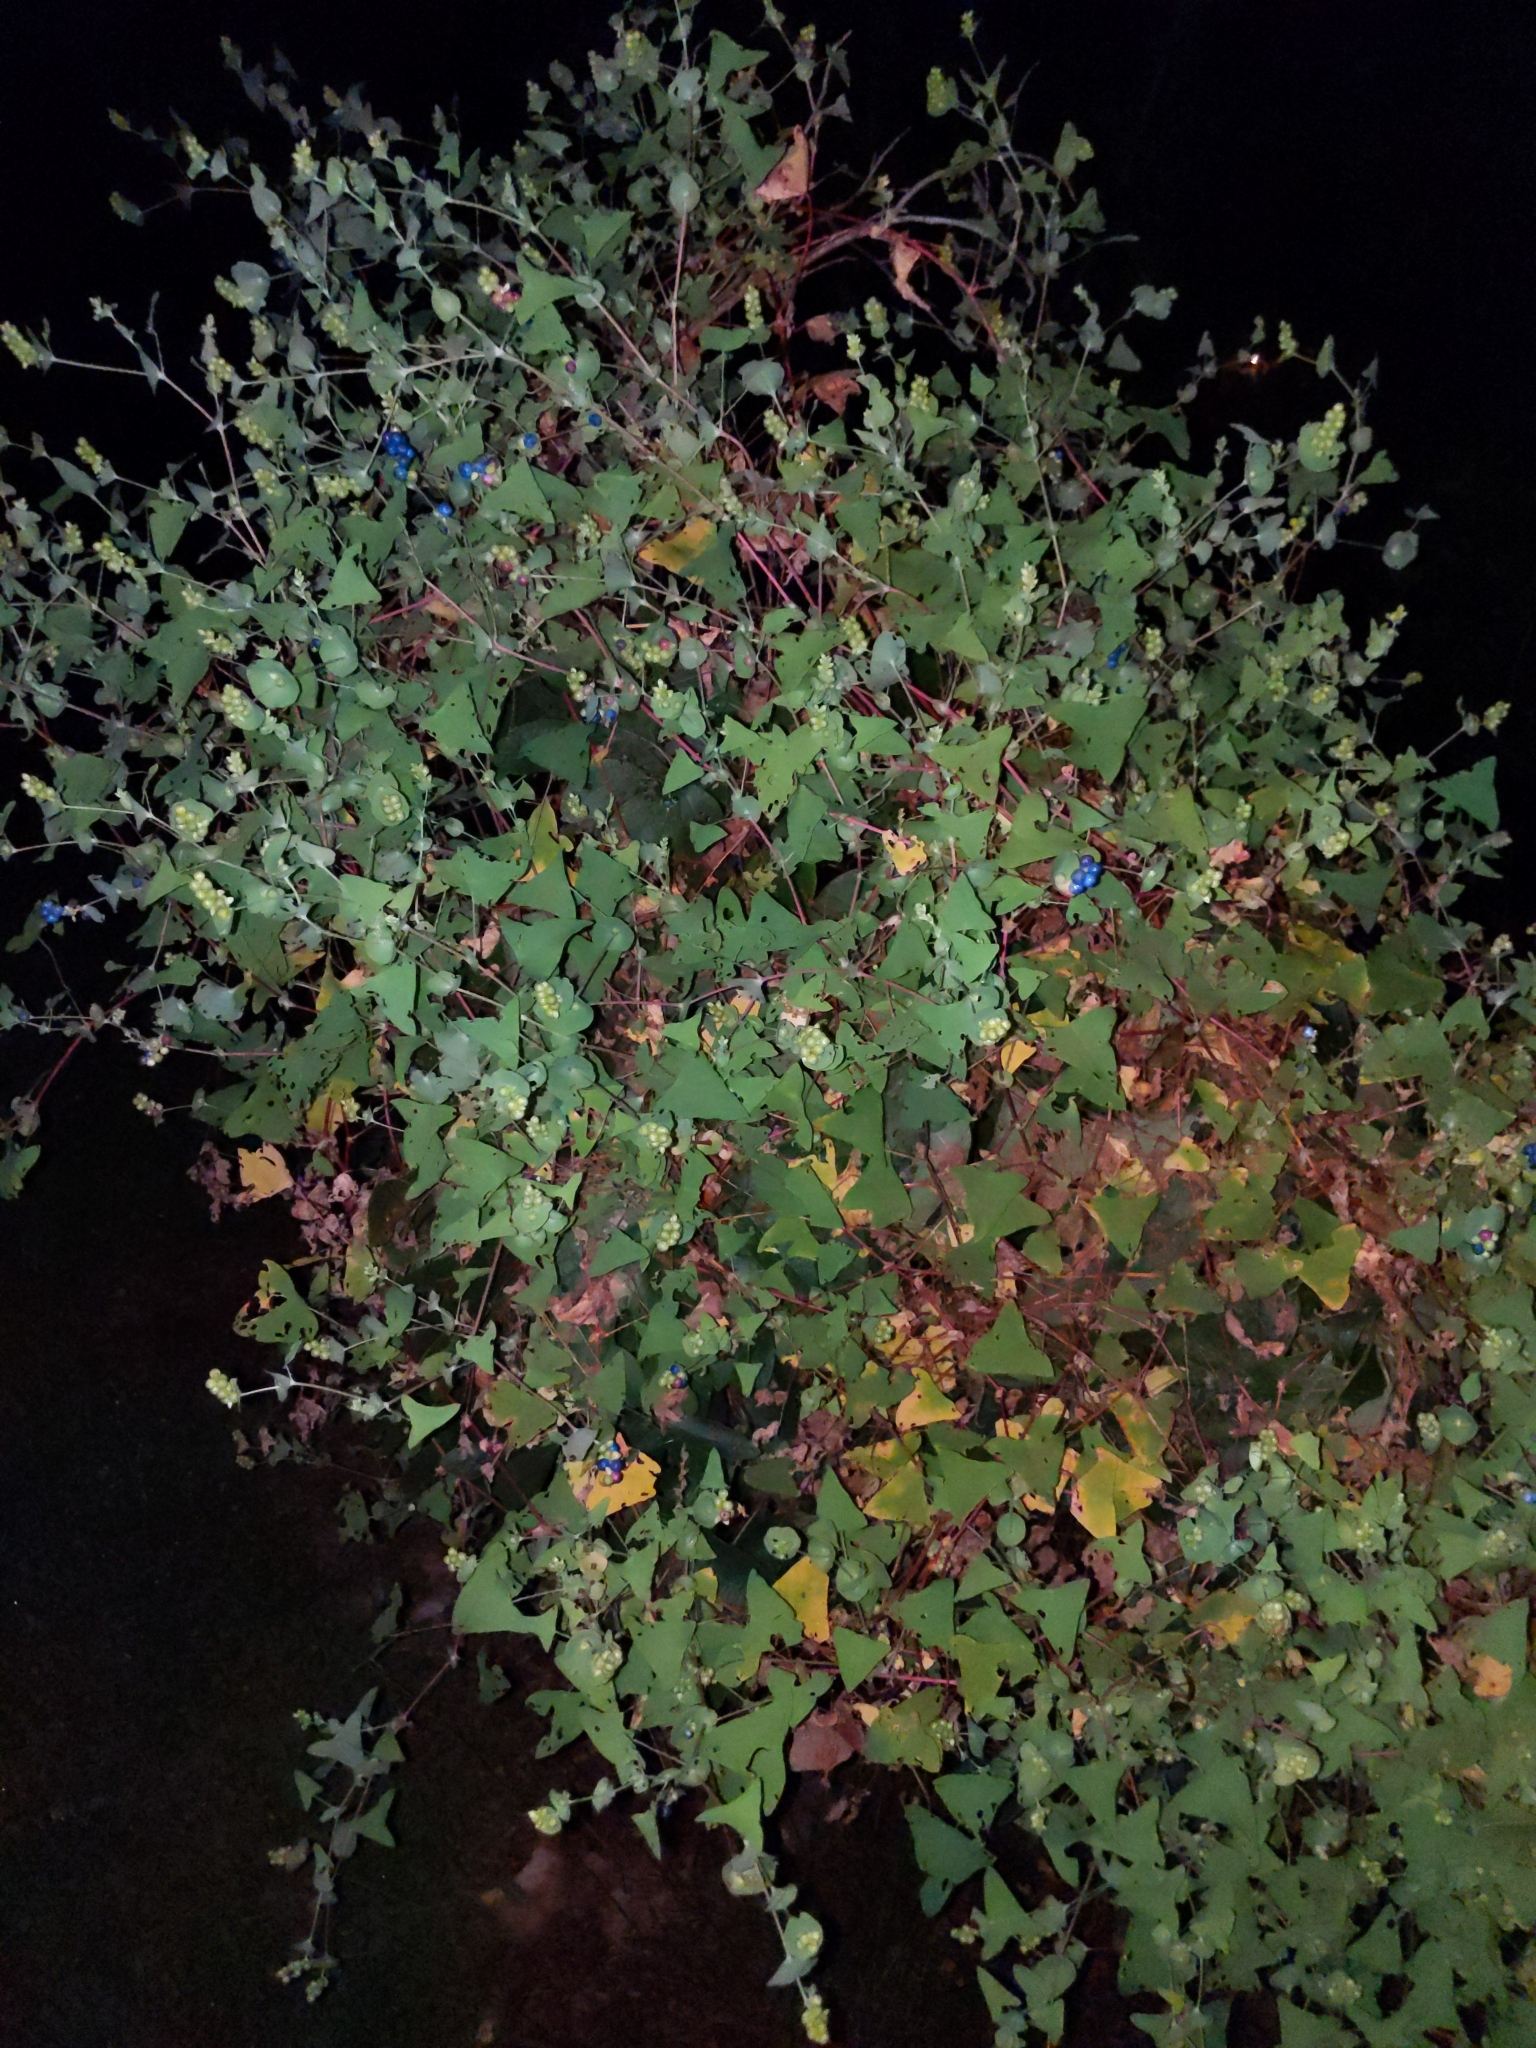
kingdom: Plantae
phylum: Tracheophyta
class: Magnoliopsida
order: Caryophyllales
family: Polygonaceae
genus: Persicaria
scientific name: Persicaria perfoliata
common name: Asiatic tearthumb
